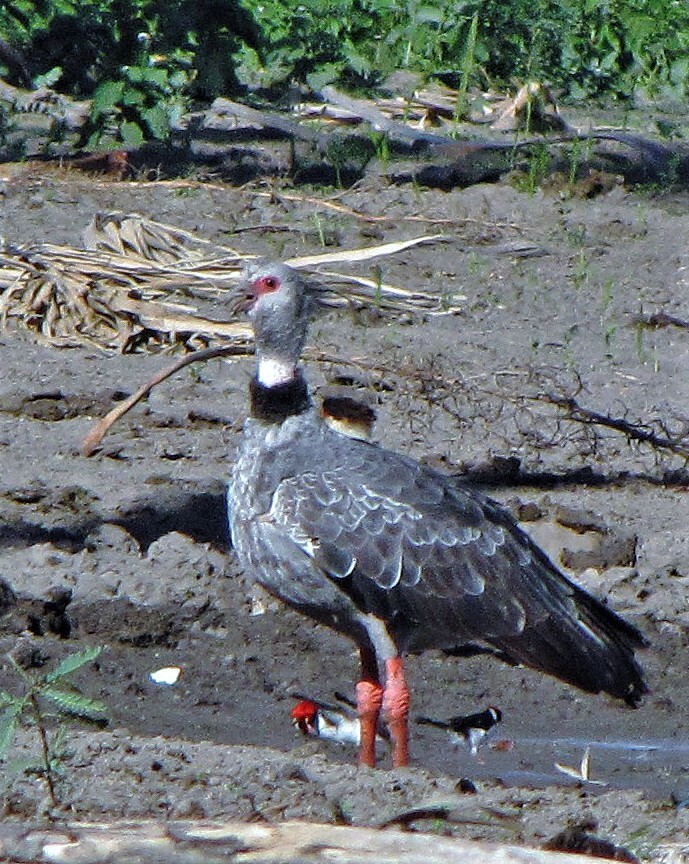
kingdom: Animalia
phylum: Chordata
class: Aves
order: Anseriformes
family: Anhimidae
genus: Chauna
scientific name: Chauna torquata
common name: Southern screamer
